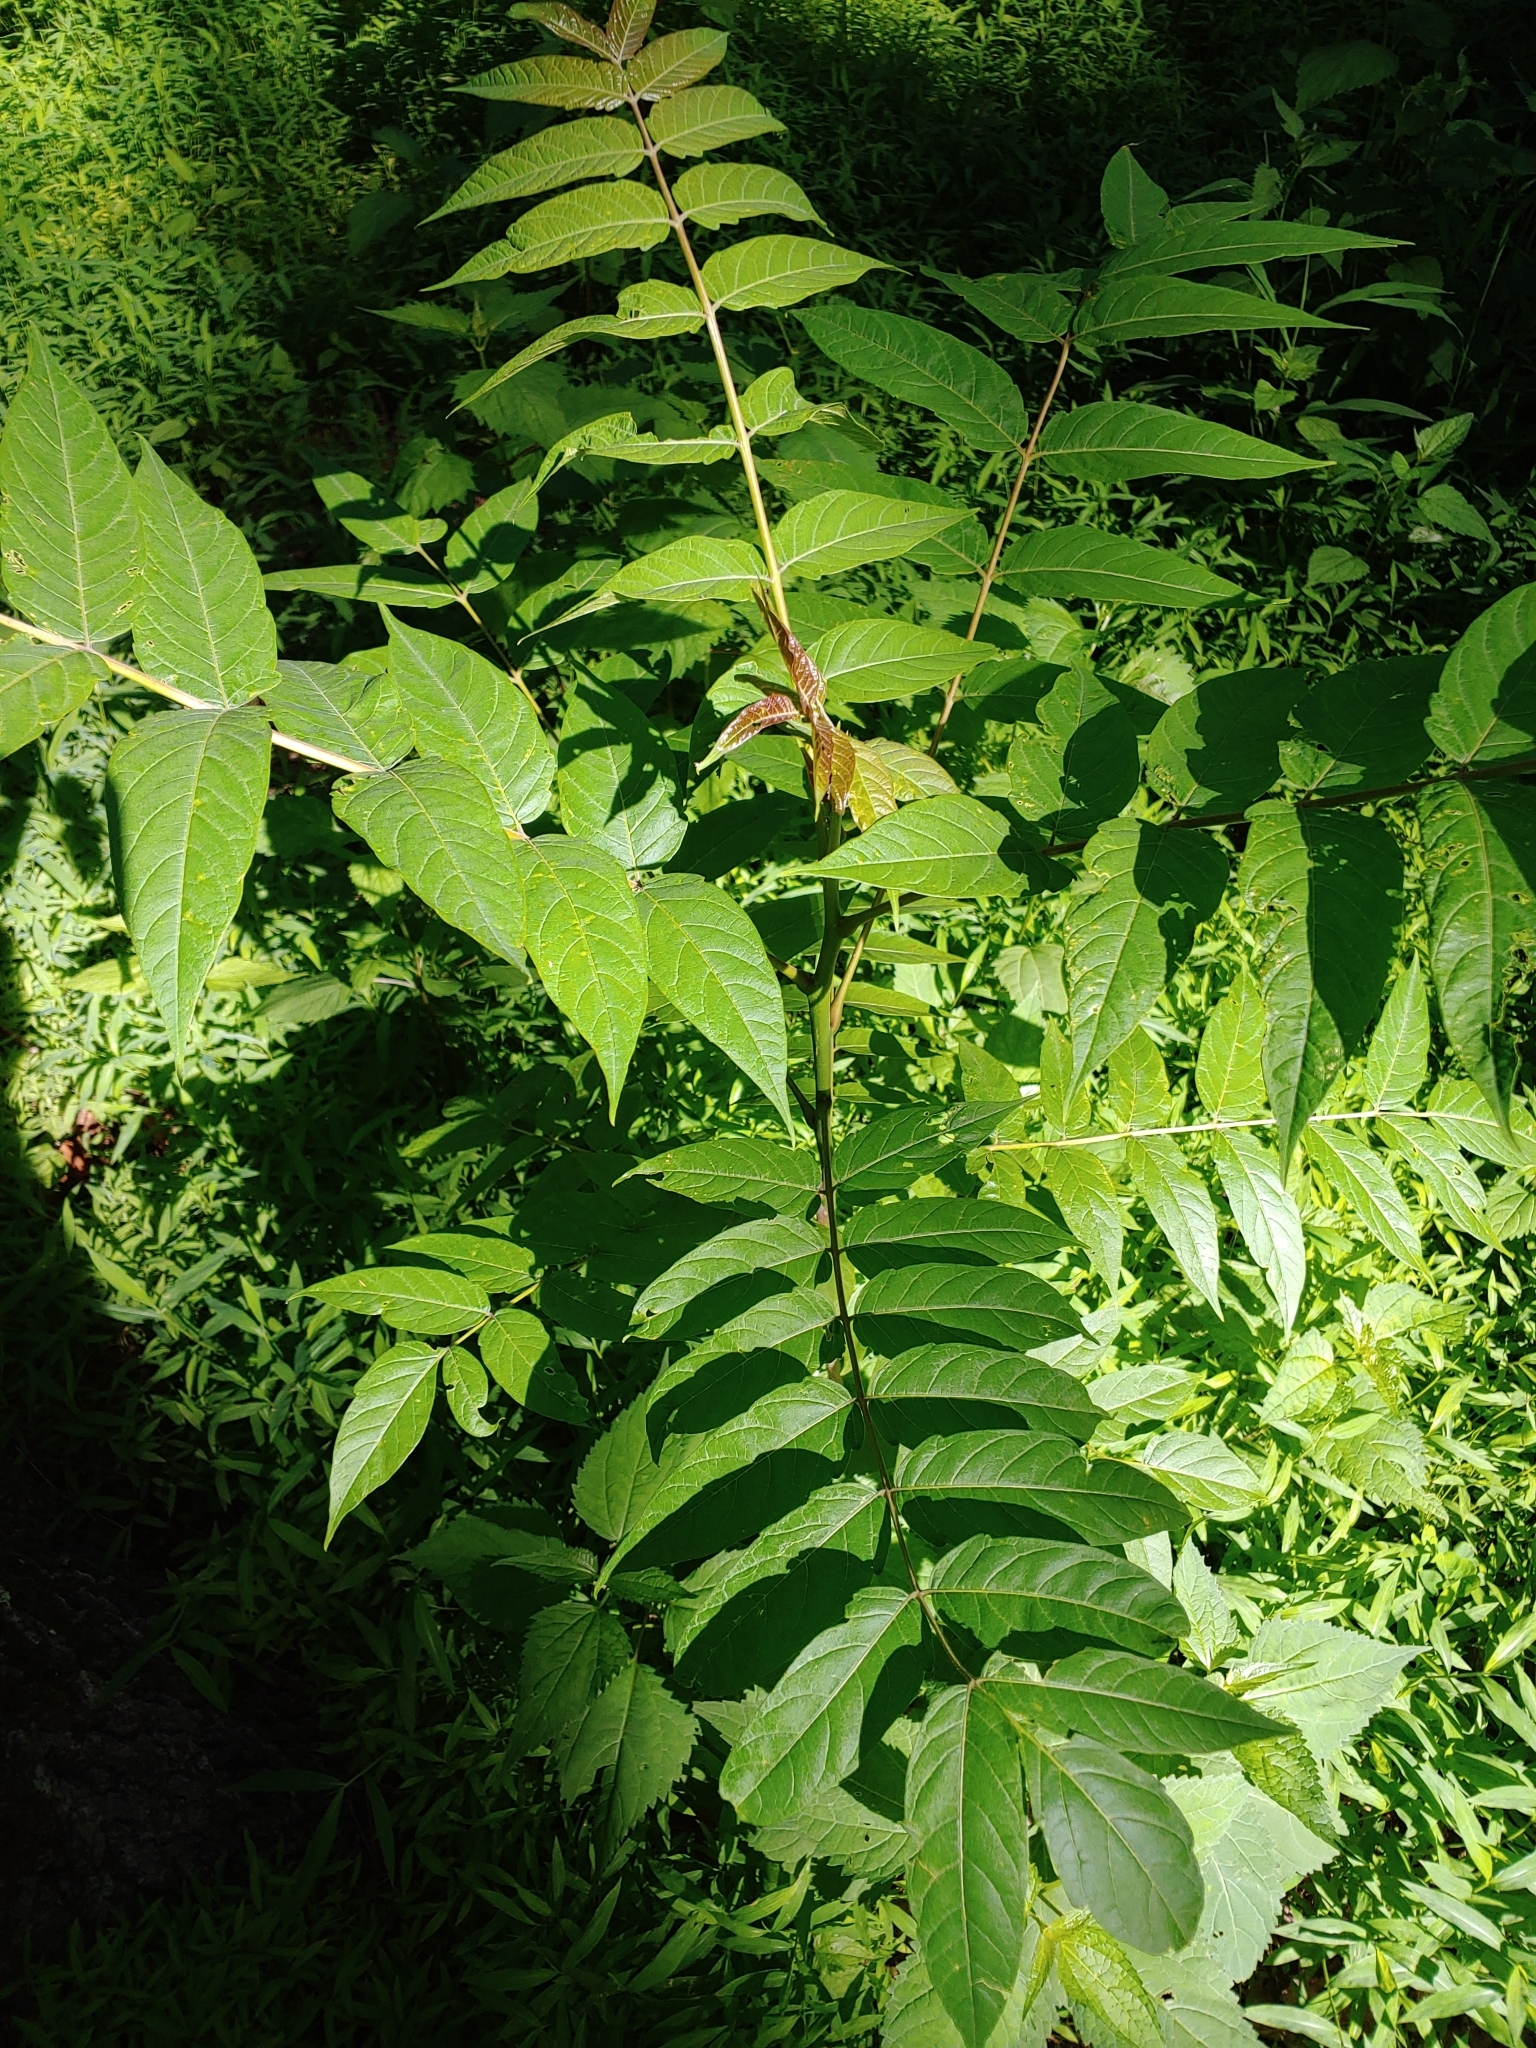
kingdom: Plantae
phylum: Tracheophyta
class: Magnoliopsida
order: Sapindales
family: Simaroubaceae
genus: Ailanthus
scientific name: Ailanthus altissima
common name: Tree-of-heaven
